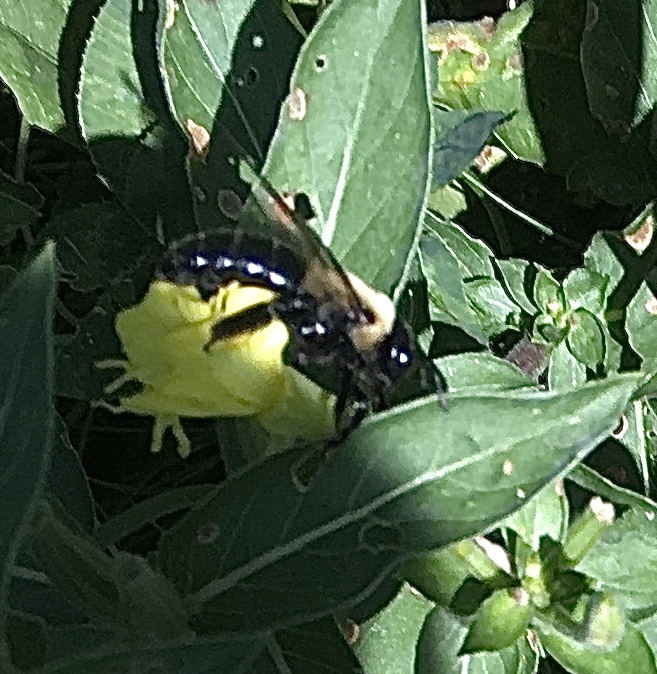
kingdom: Animalia
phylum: Arthropoda
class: Insecta
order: Hymenoptera
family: Apidae
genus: Xylocopa
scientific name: Xylocopa virginica
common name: Carpenter bee
